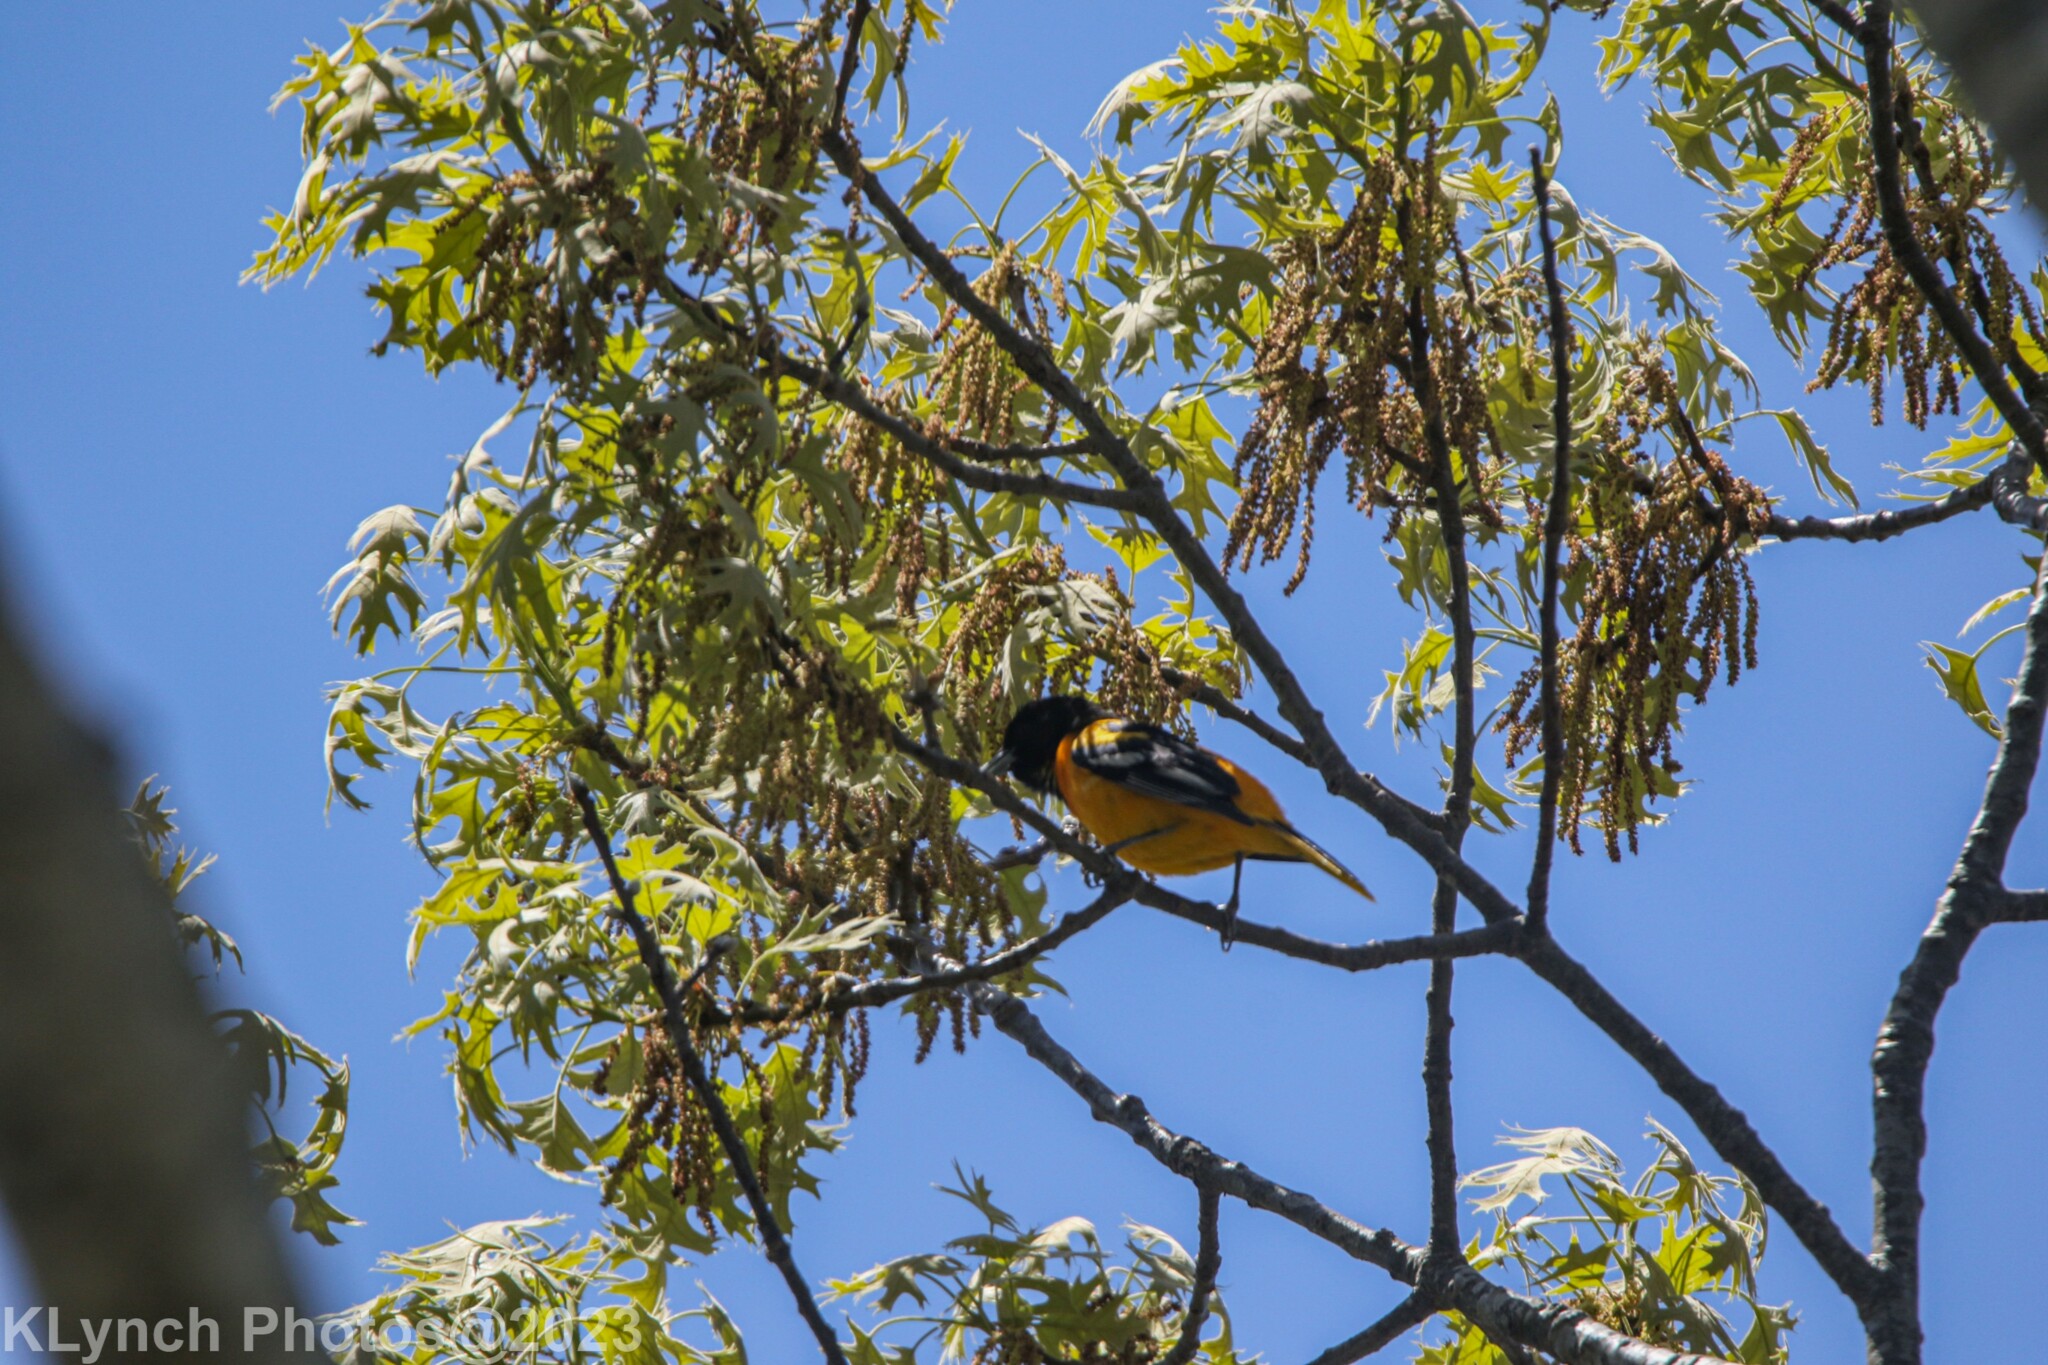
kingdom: Animalia
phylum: Chordata
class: Aves
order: Passeriformes
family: Icteridae
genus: Icterus
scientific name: Icterus galbula
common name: Baltimore oriole
